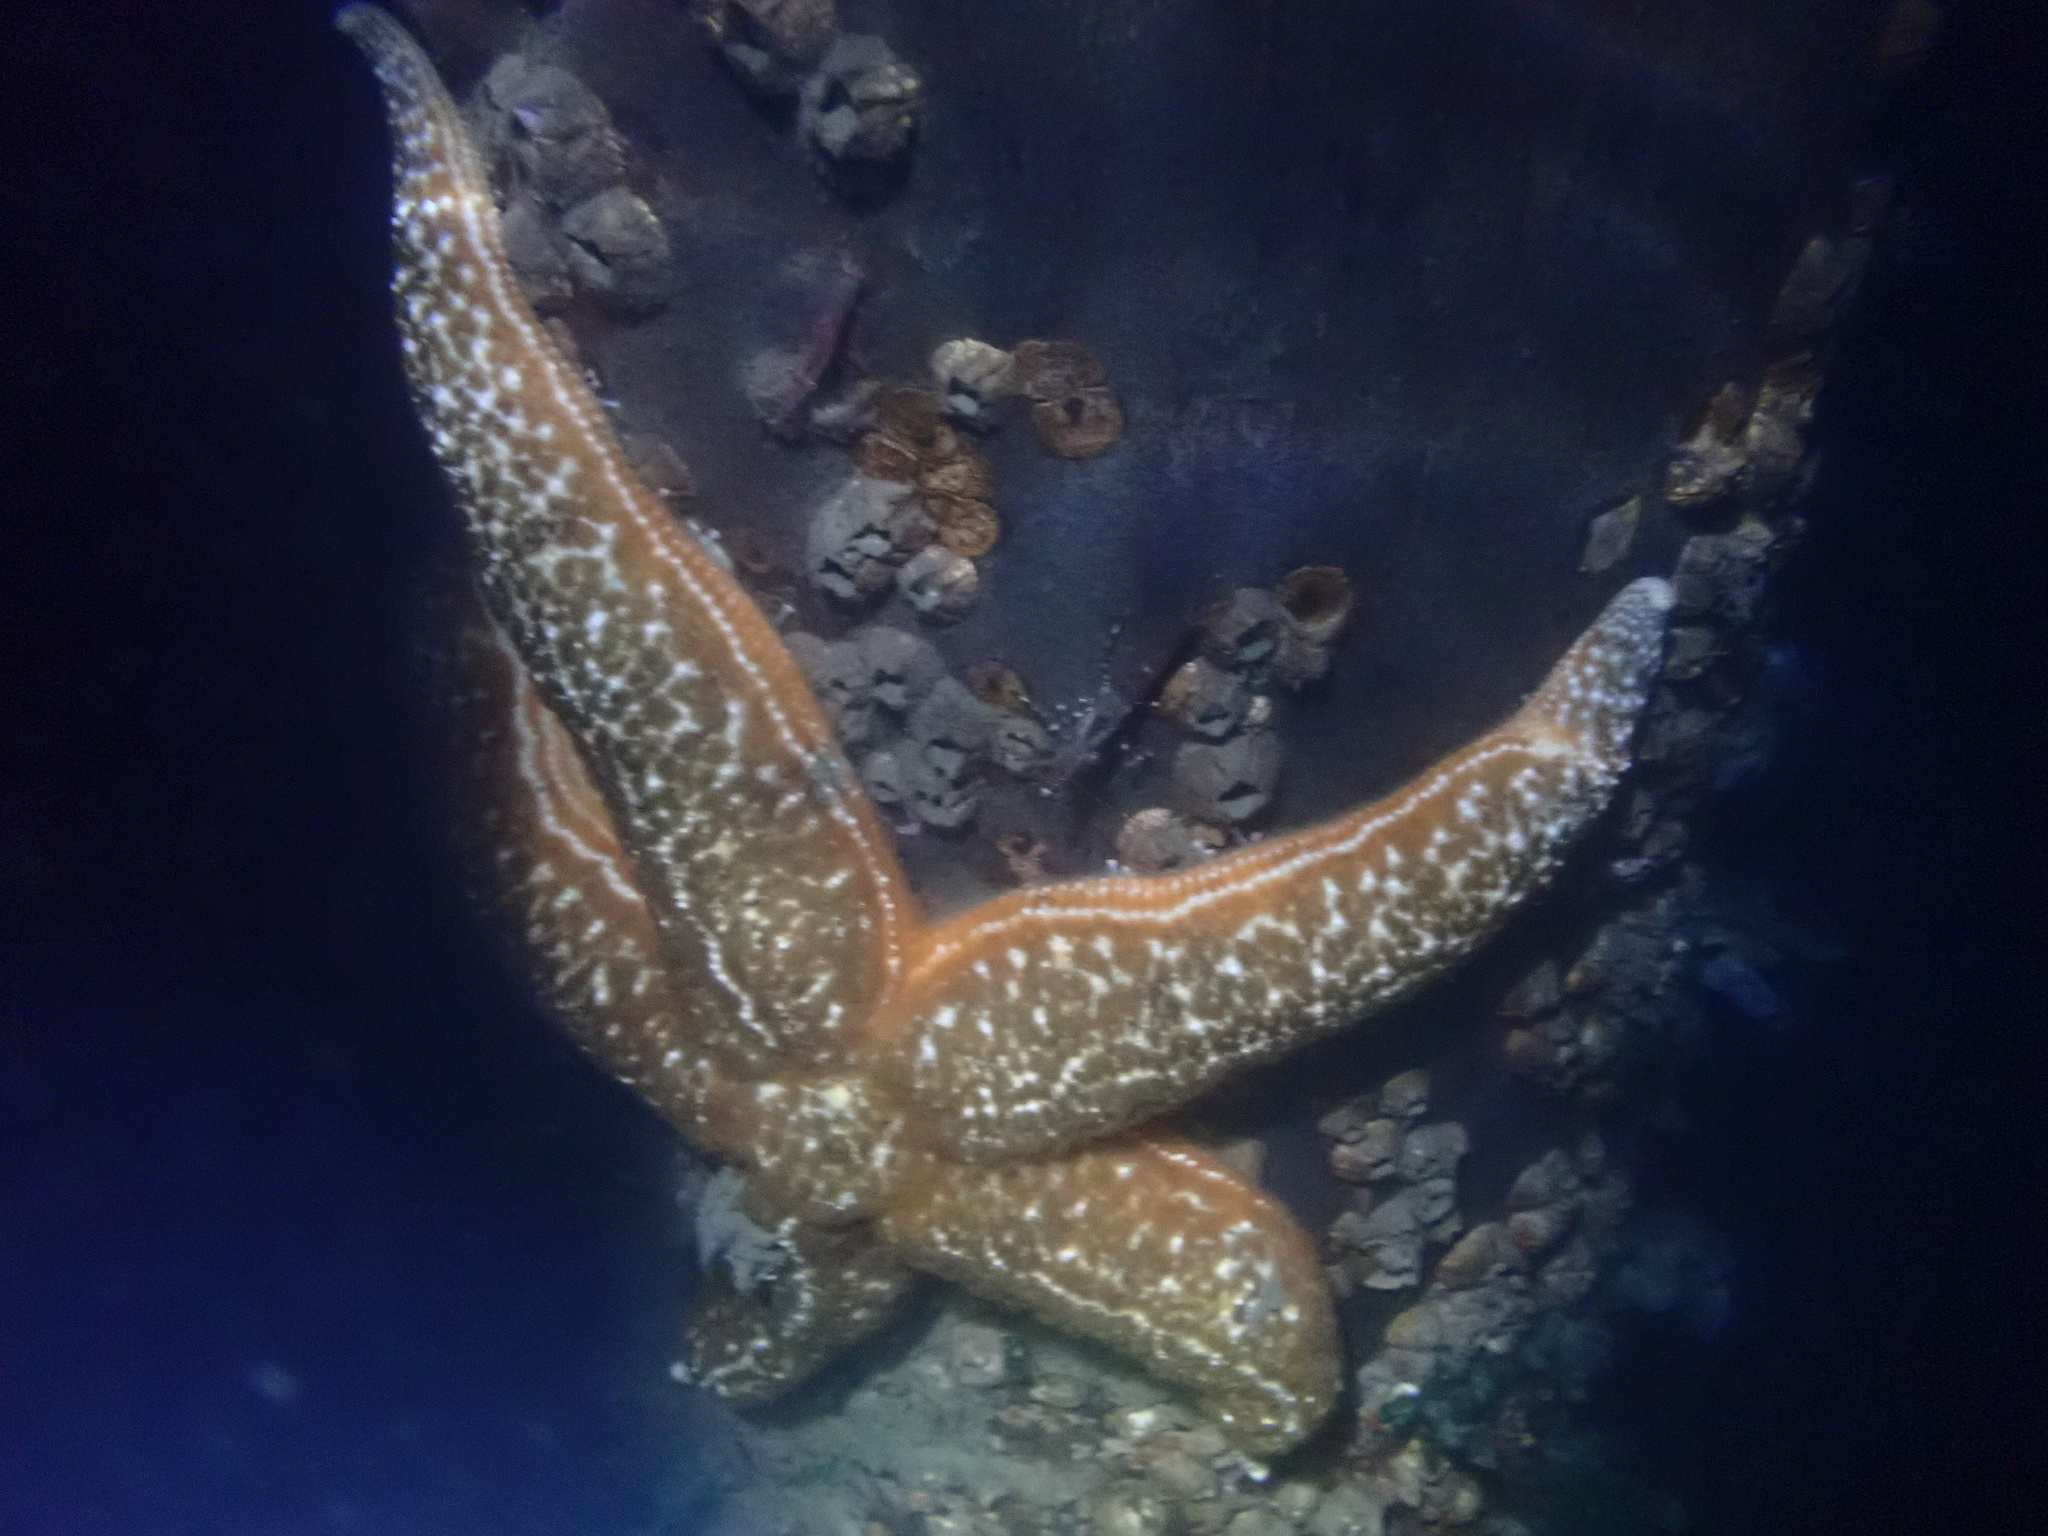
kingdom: Animalia
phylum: Echinodermata
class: Asteroidea
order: Forcipulatida
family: Asteriidae
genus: Evasterias
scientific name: Evasterias troschelii
